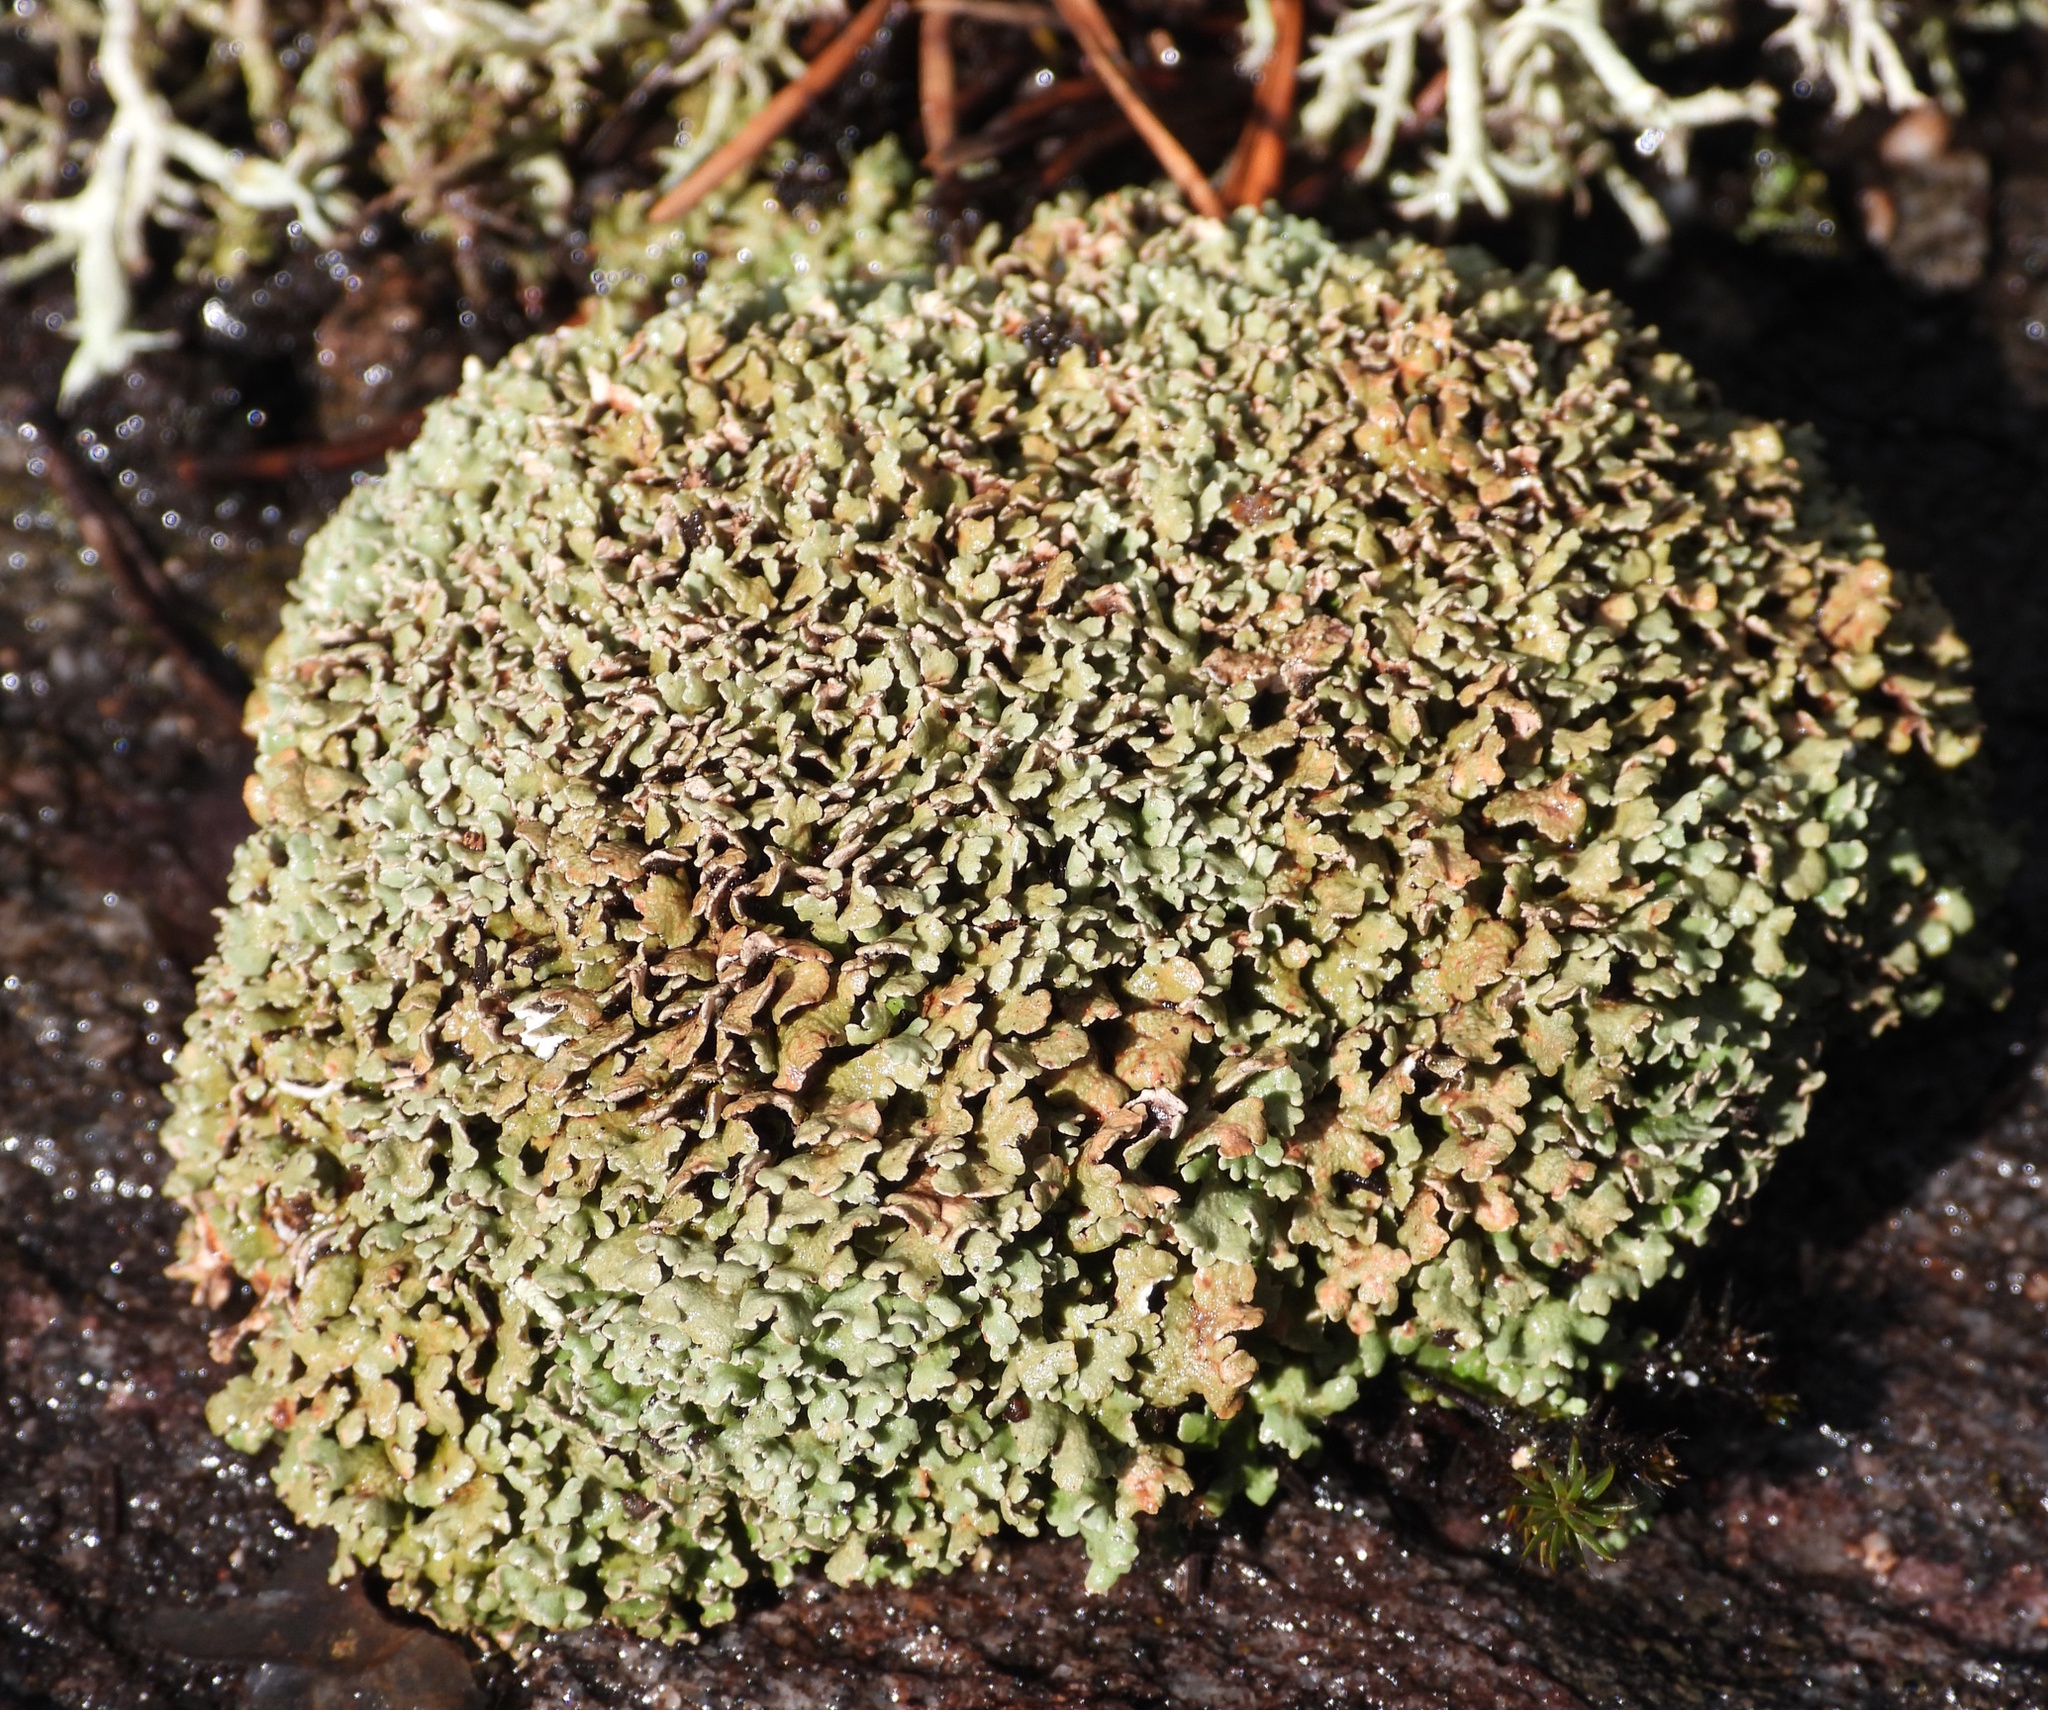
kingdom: Fungi
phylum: Ascomycota
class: Lecanoromycetes
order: Lecanorales
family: Cladoniaceae
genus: Cladonia
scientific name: Cladonia strepsilis
